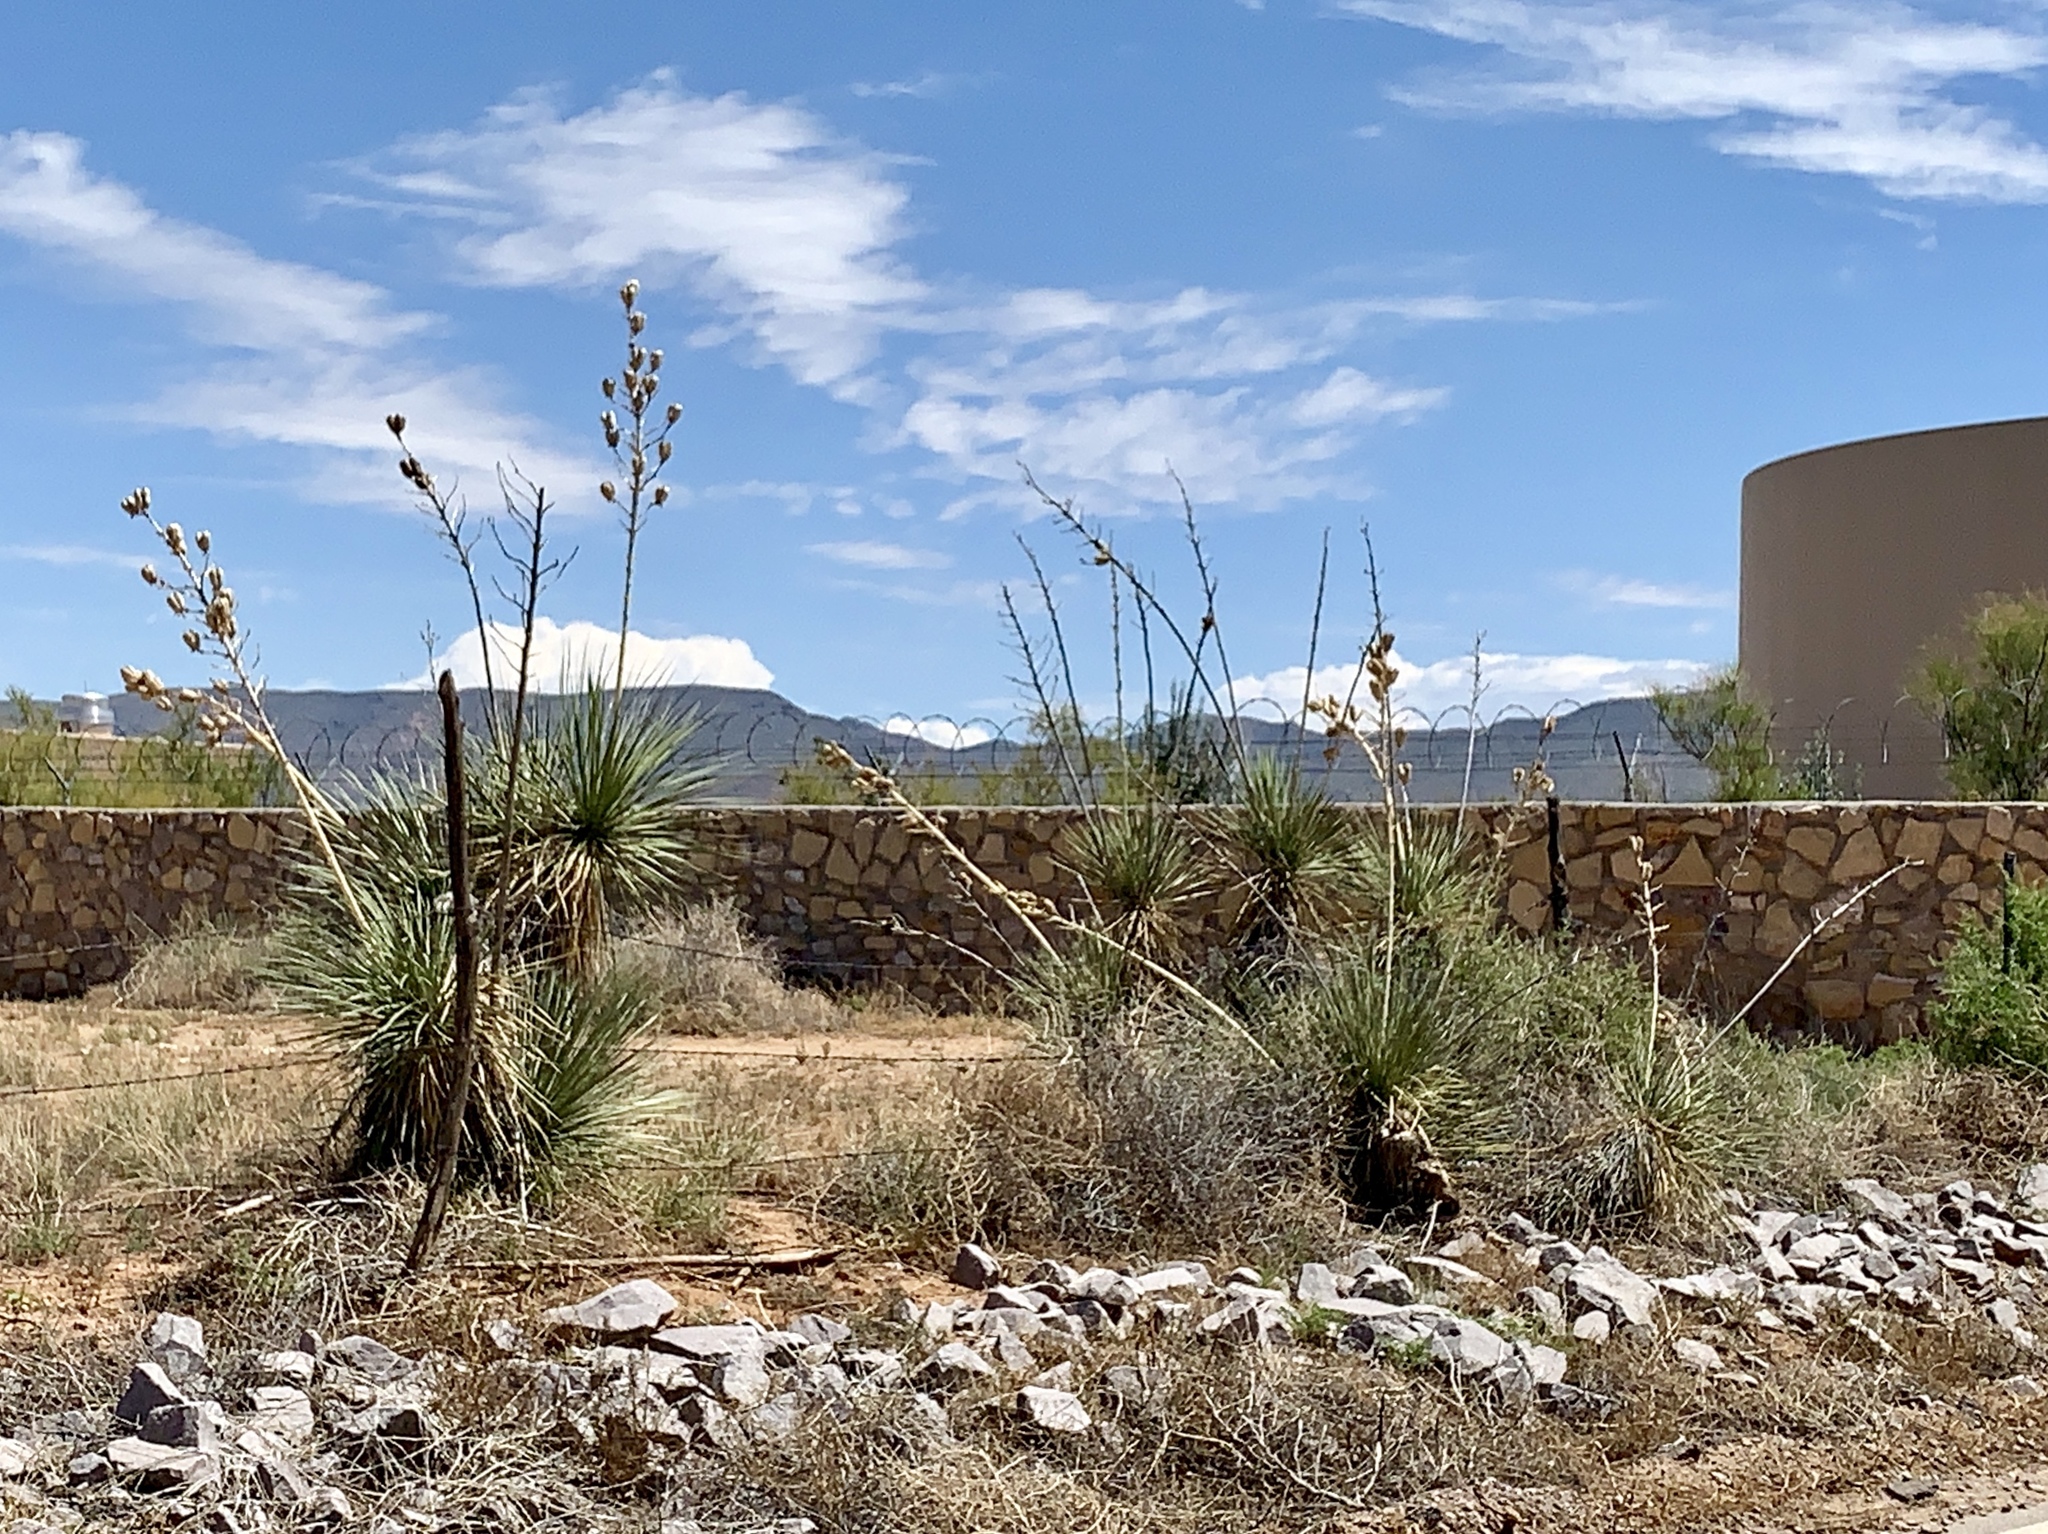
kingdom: Plantae
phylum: Tracheophyta
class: Liliopsida
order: Asparagales
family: Asparagaceae
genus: Yucca
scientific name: Yucca elata
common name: Palmella
